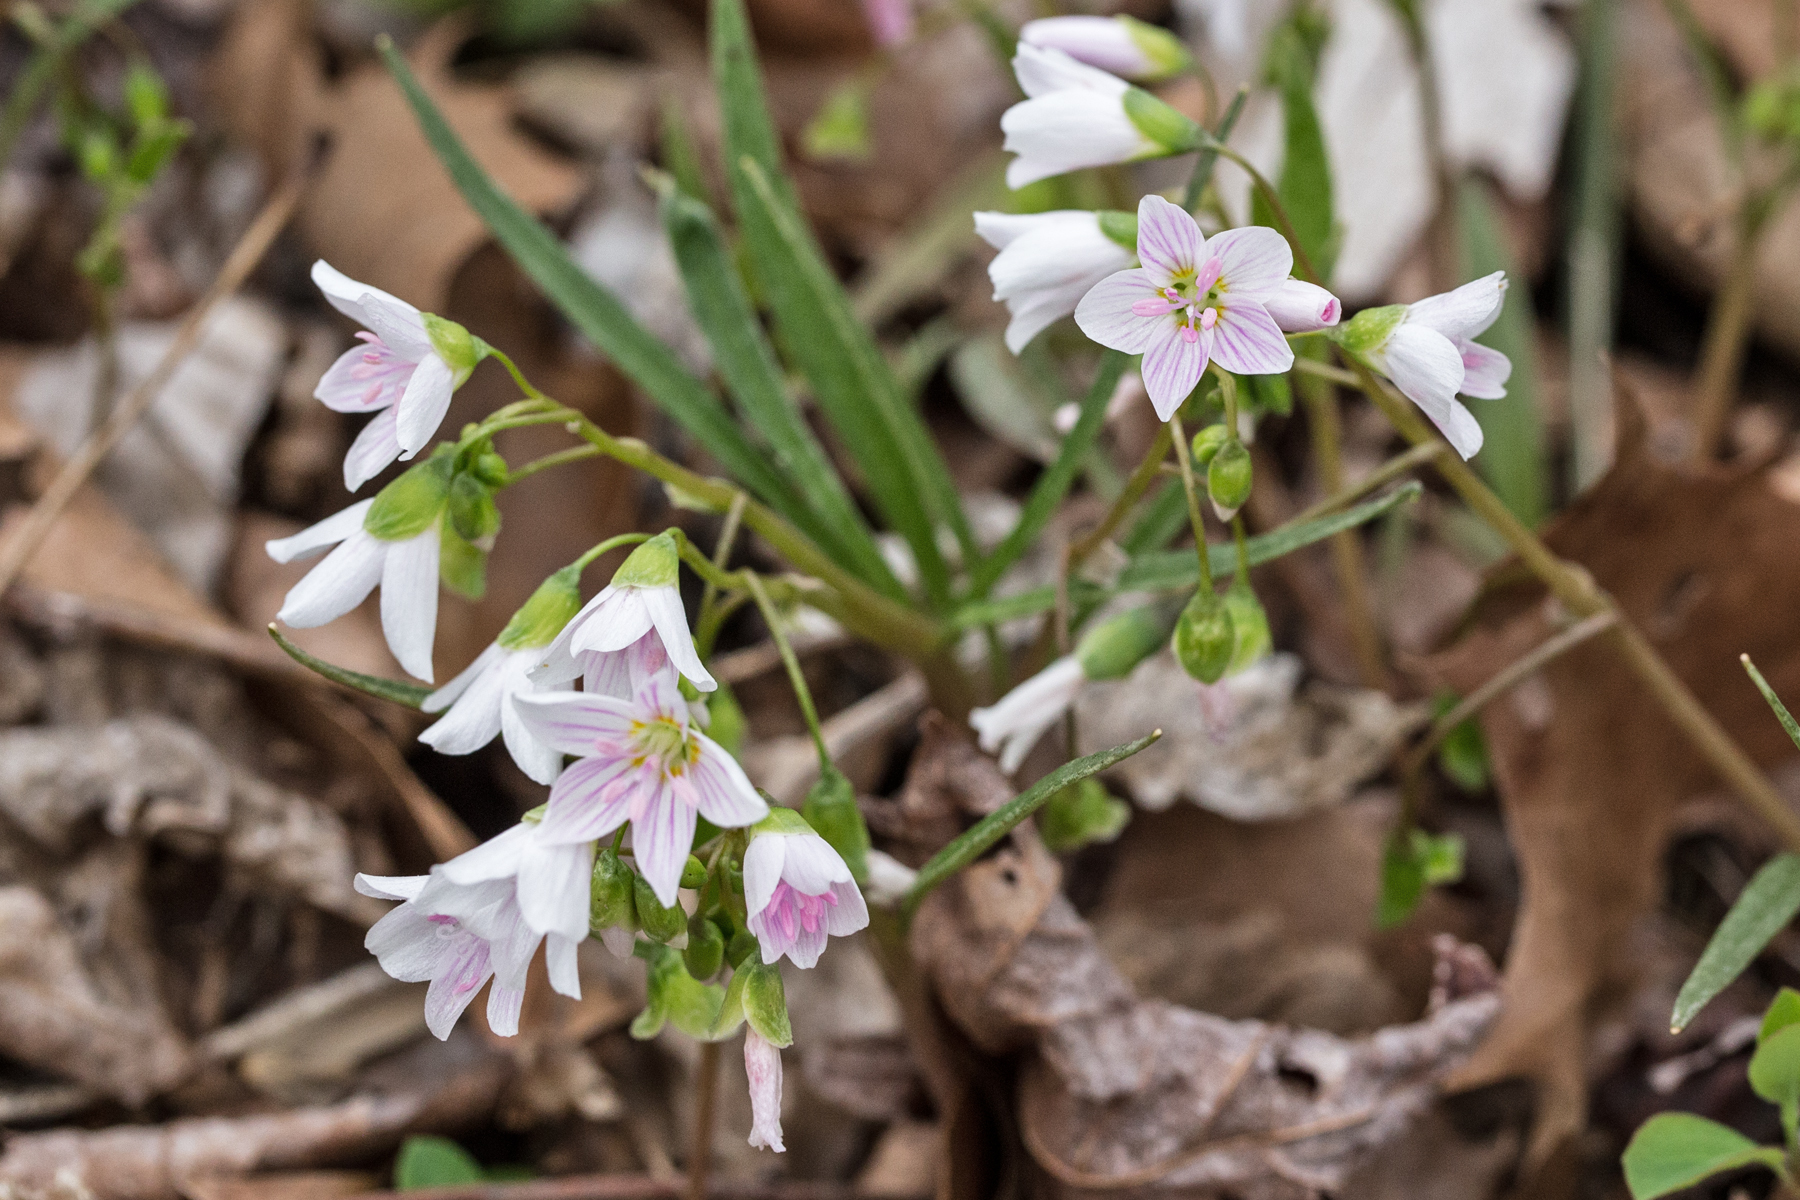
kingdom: Plantae
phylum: Tracheophyta
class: Magnoliopsida
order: Caryophyllales
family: Montiaceae
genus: Claytonia
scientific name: Claytonia virginica
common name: Virginia springbeauty
